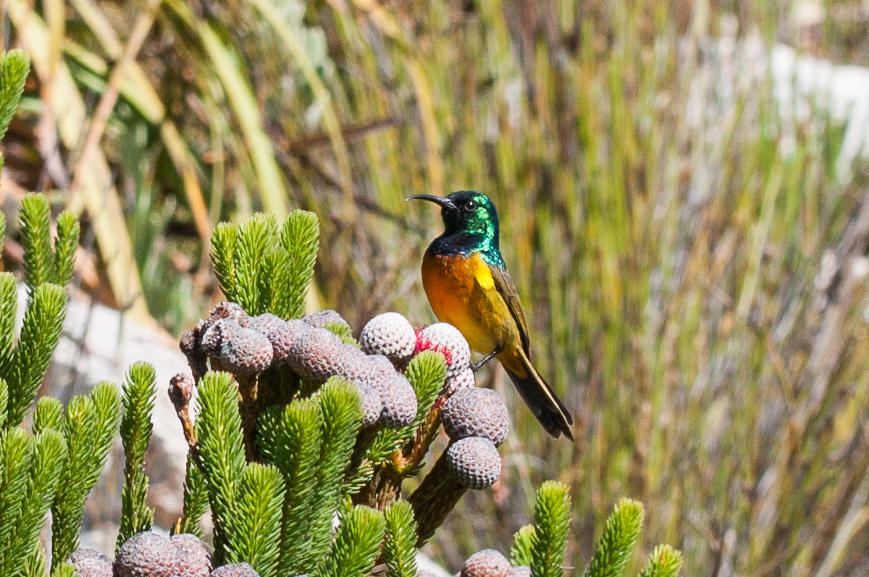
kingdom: Animalia
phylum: Chordata
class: Aves
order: Passeriformes
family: Nectariniidae
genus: Anthobaphes
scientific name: Anthobaphes violacea
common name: Orange-breasted sunbird
